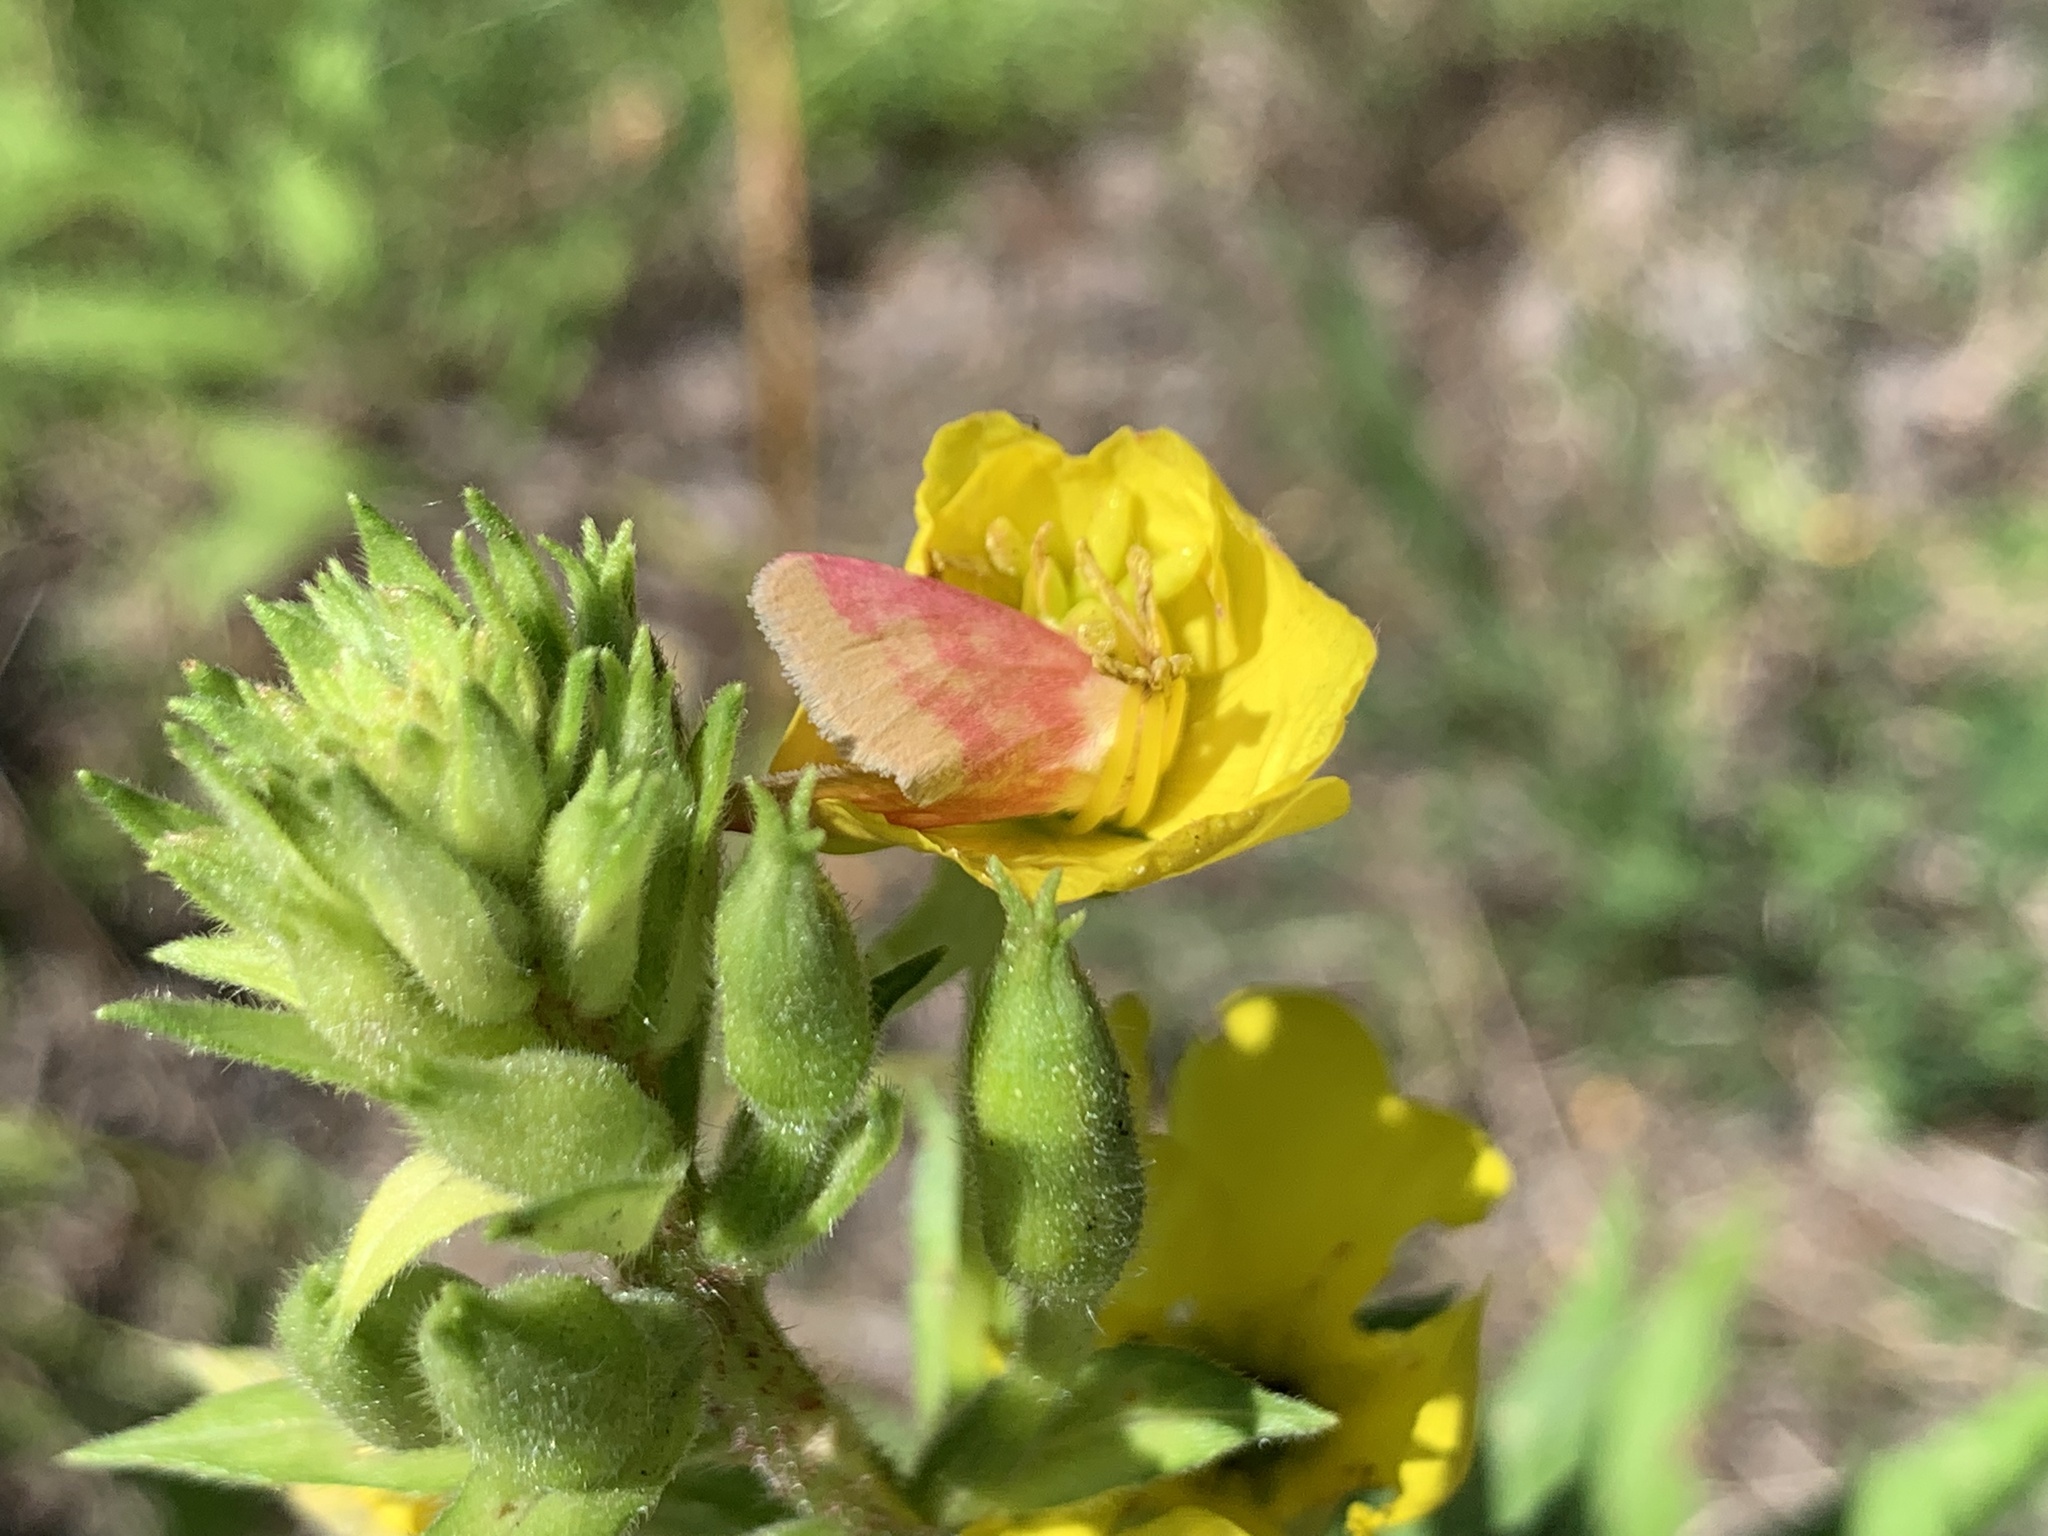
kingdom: Animalia
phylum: Arthropoda
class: Insecta
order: Lepidoptera
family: Noctuidae
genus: Schinia
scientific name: Schinia florida
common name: Primrose moth
